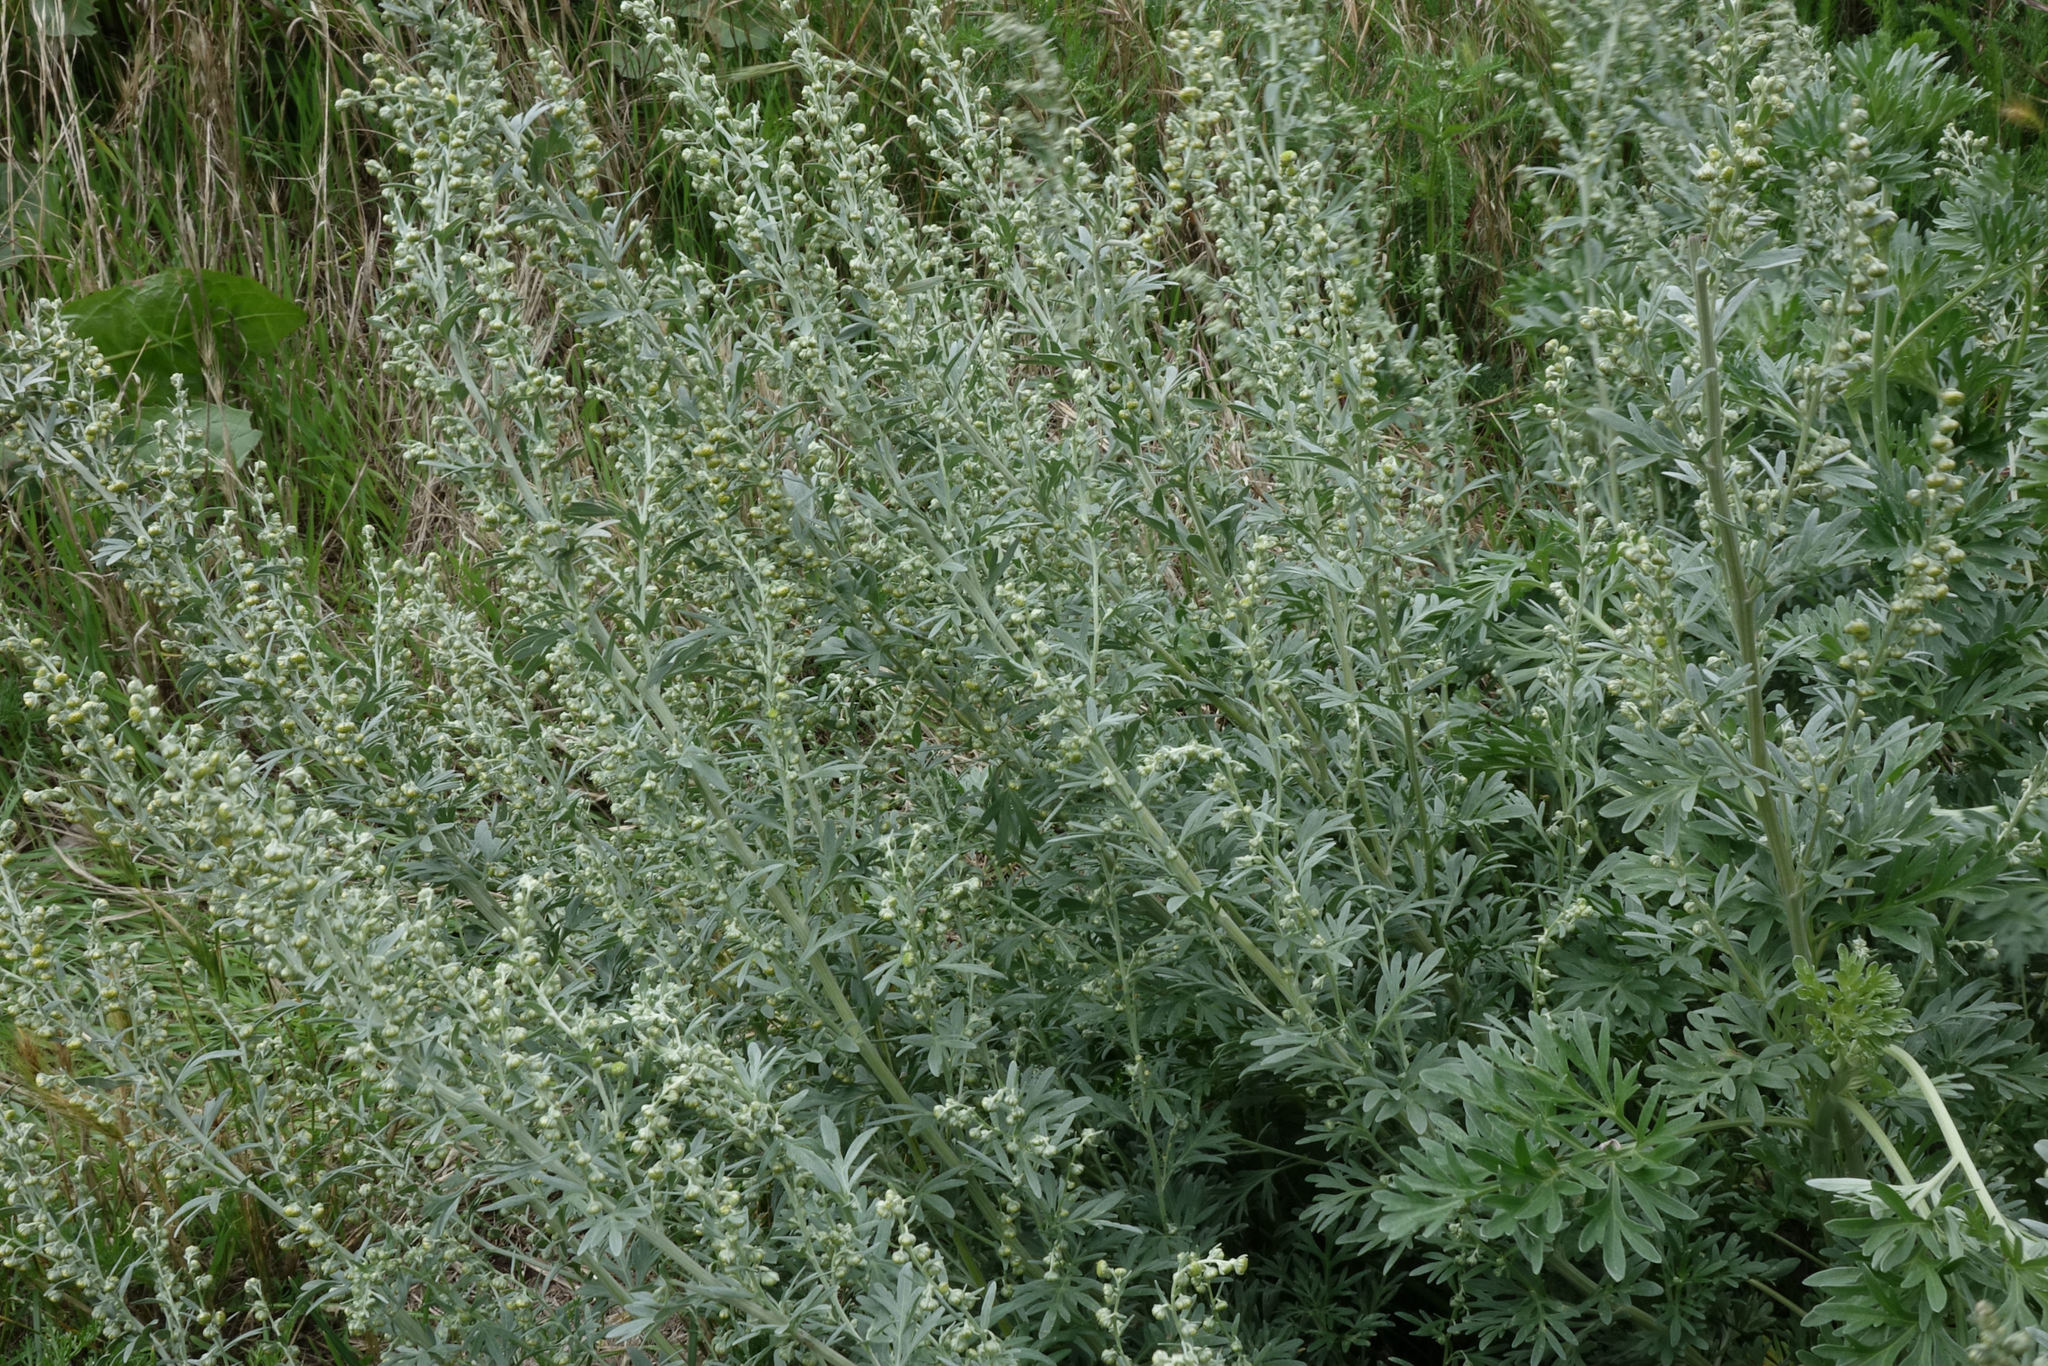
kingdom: Plantae
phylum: Tracheophyta
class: Magnoliopsida
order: Asterales
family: Asteraceae
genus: Artemisia
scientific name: Artemisia absinthium
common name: Wormwood
